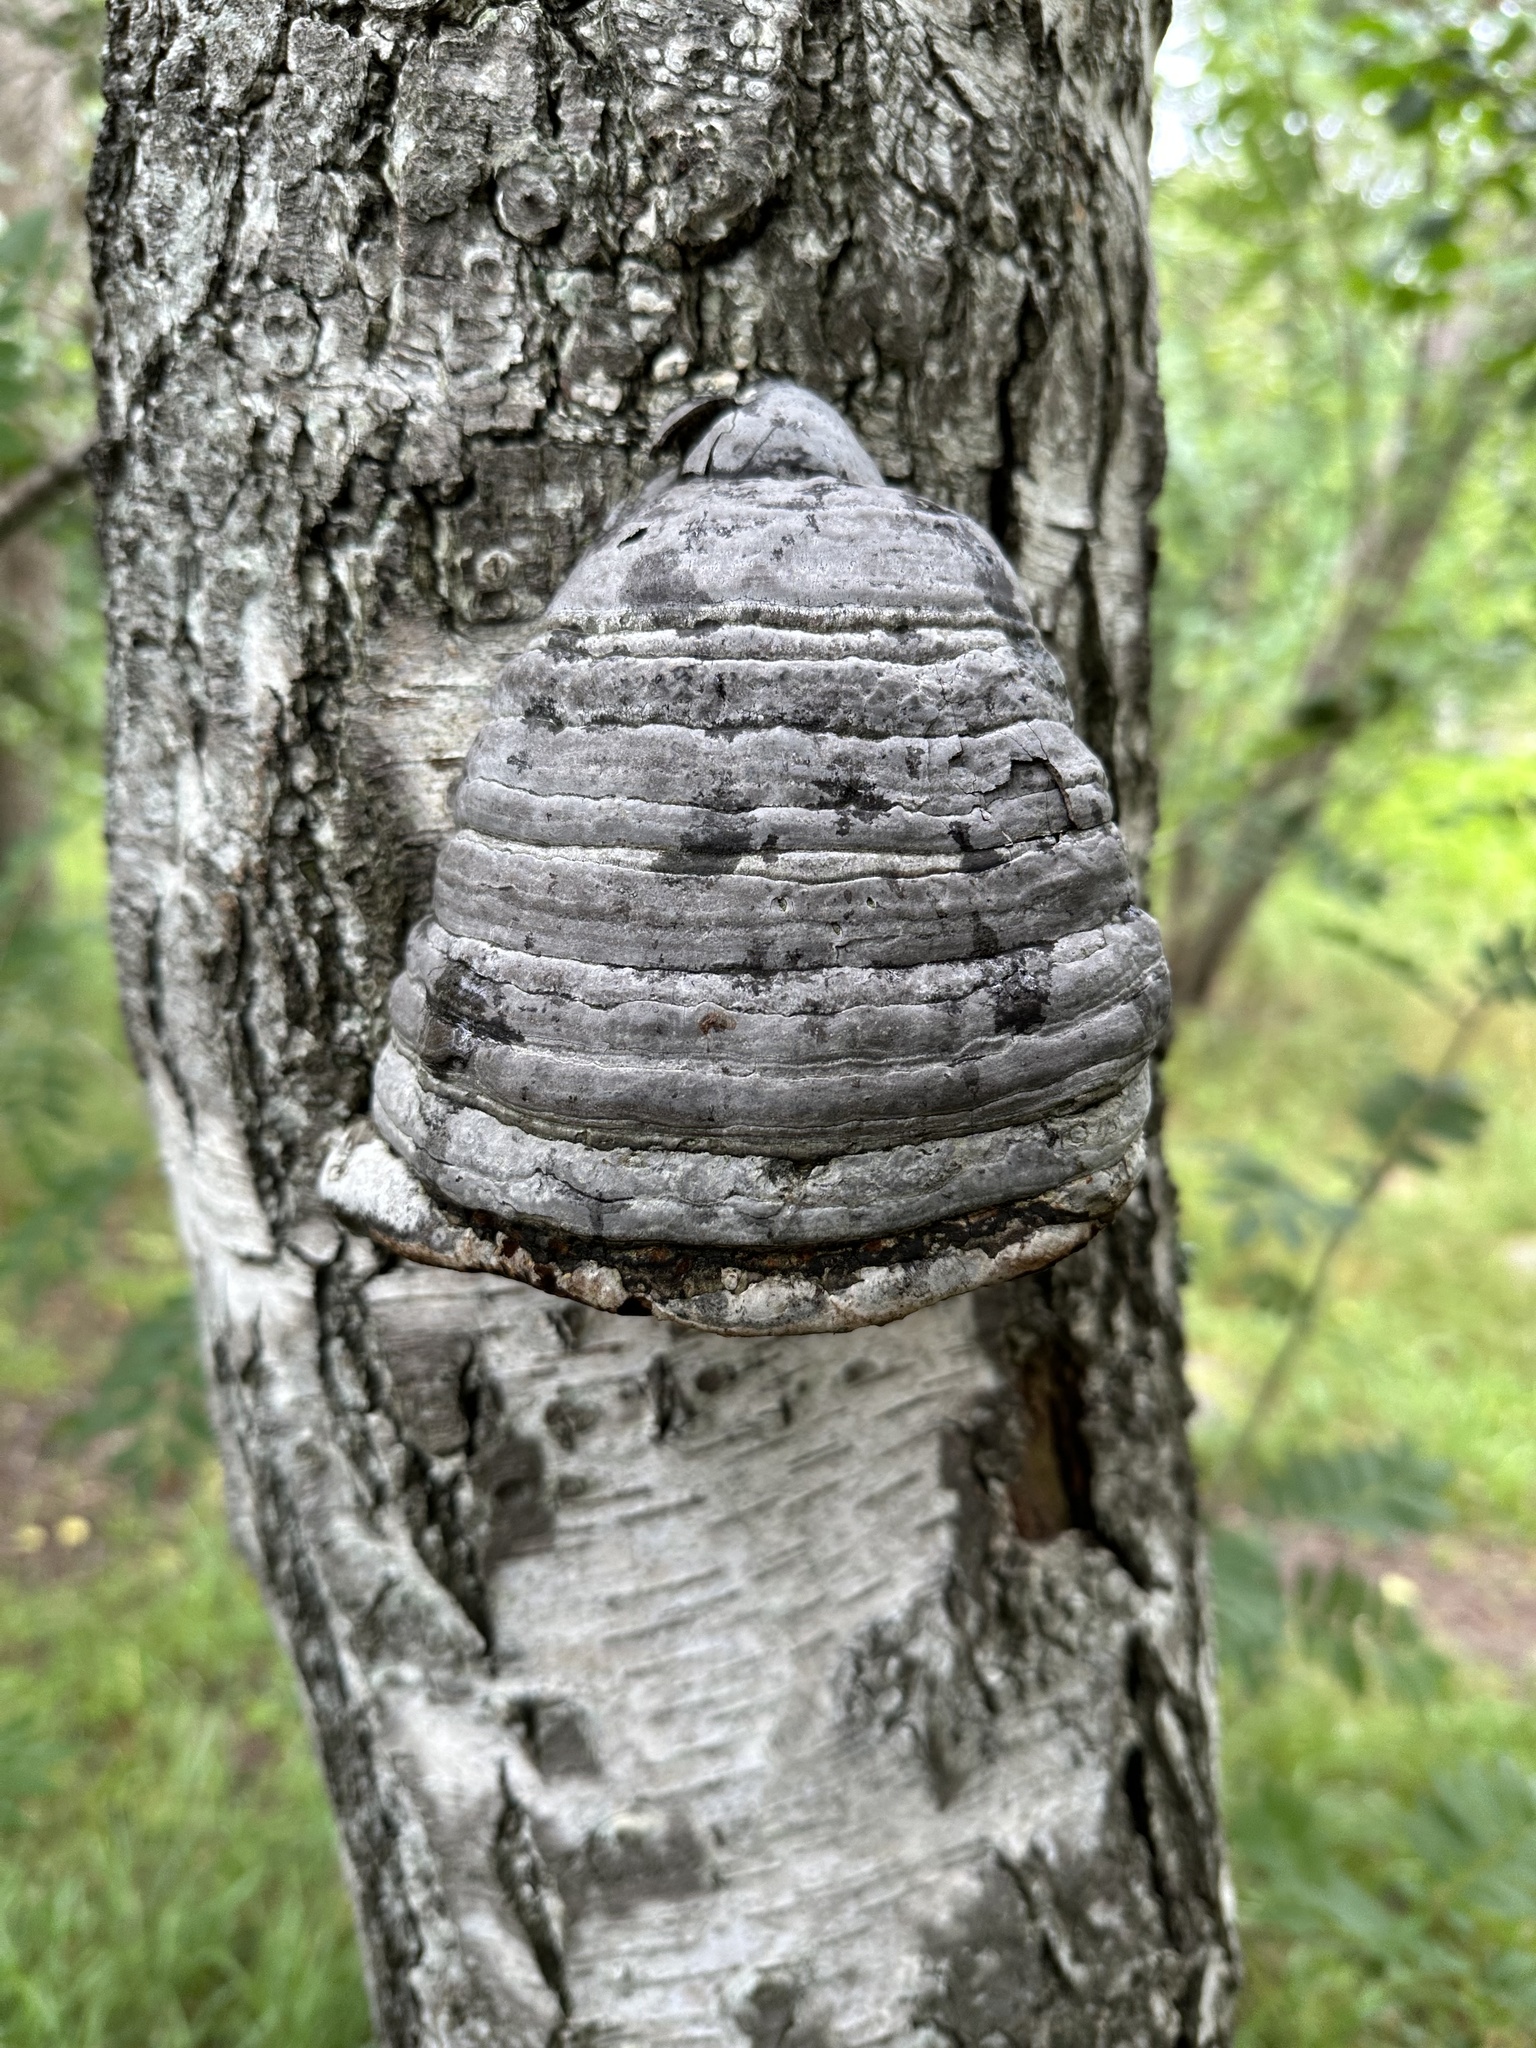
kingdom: Fungi
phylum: Basidiomycota
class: Agaricomycetes
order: Polyporales
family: Polyporaceae
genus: Fomes
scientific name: Fomes fomentarius
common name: Hoof fungus
